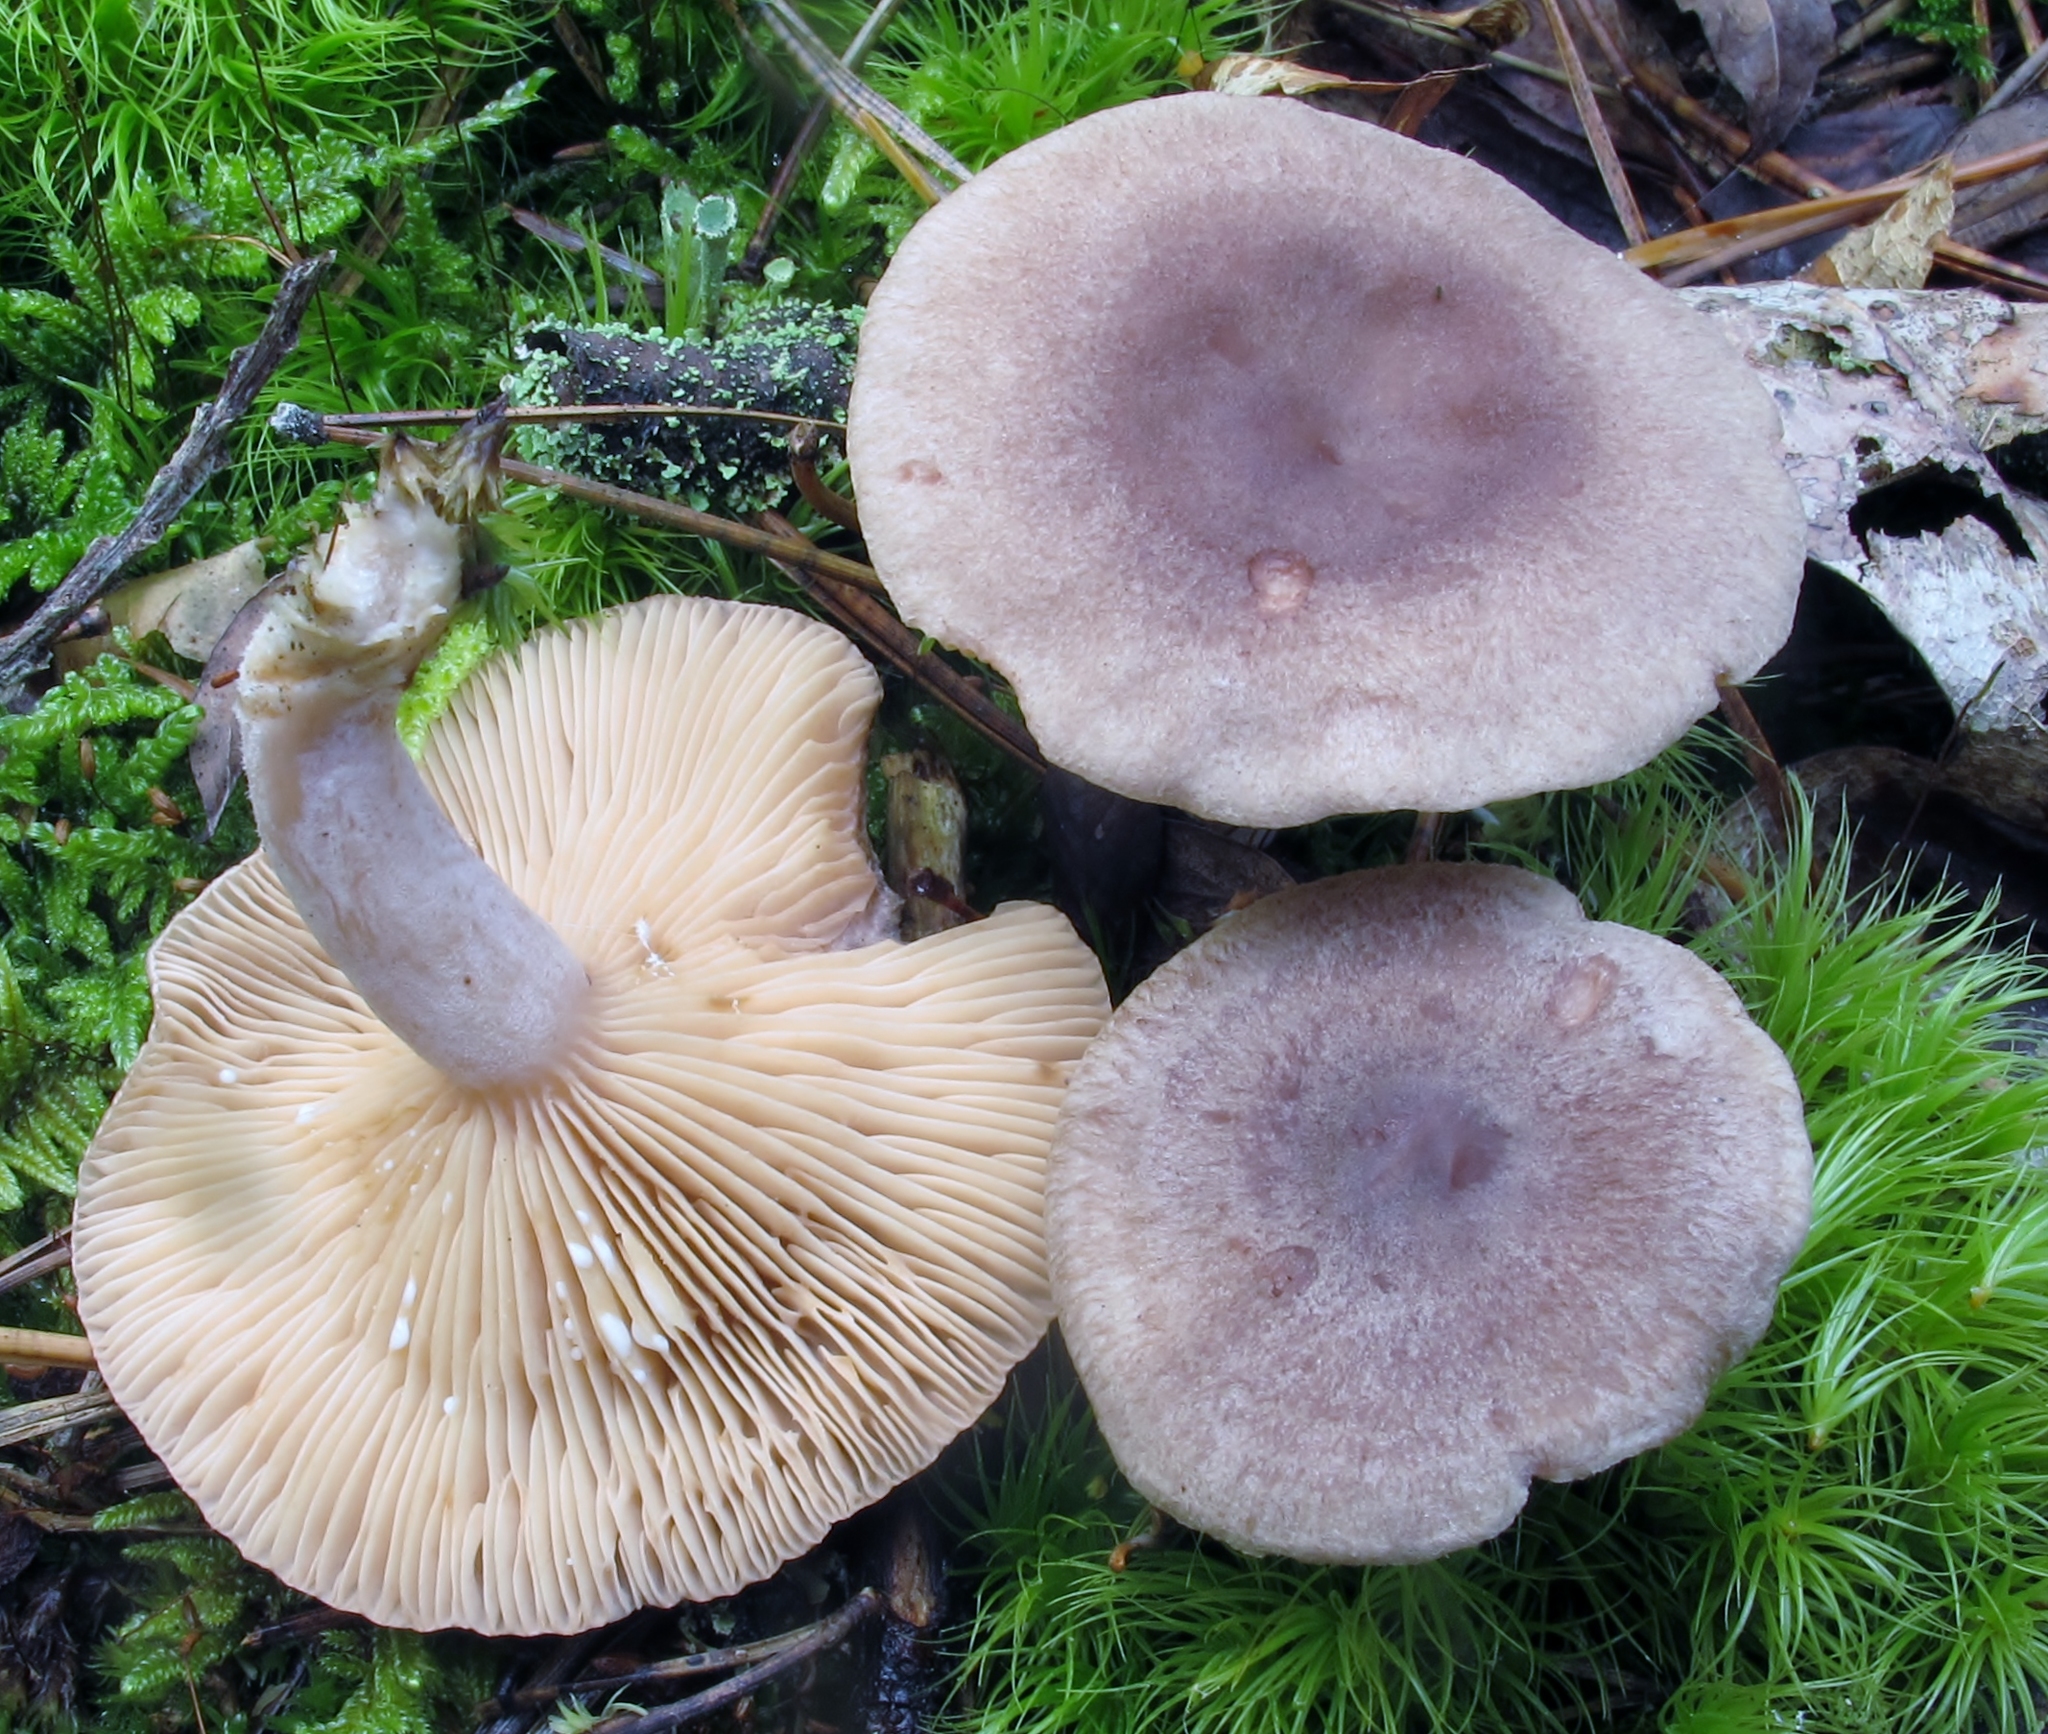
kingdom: Fungi
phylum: Basidiomycota
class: Agaricomycetes
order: Russulales
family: Russulaceae
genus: Lactarius
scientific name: Lactarius mammosus
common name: Pap milkcap
